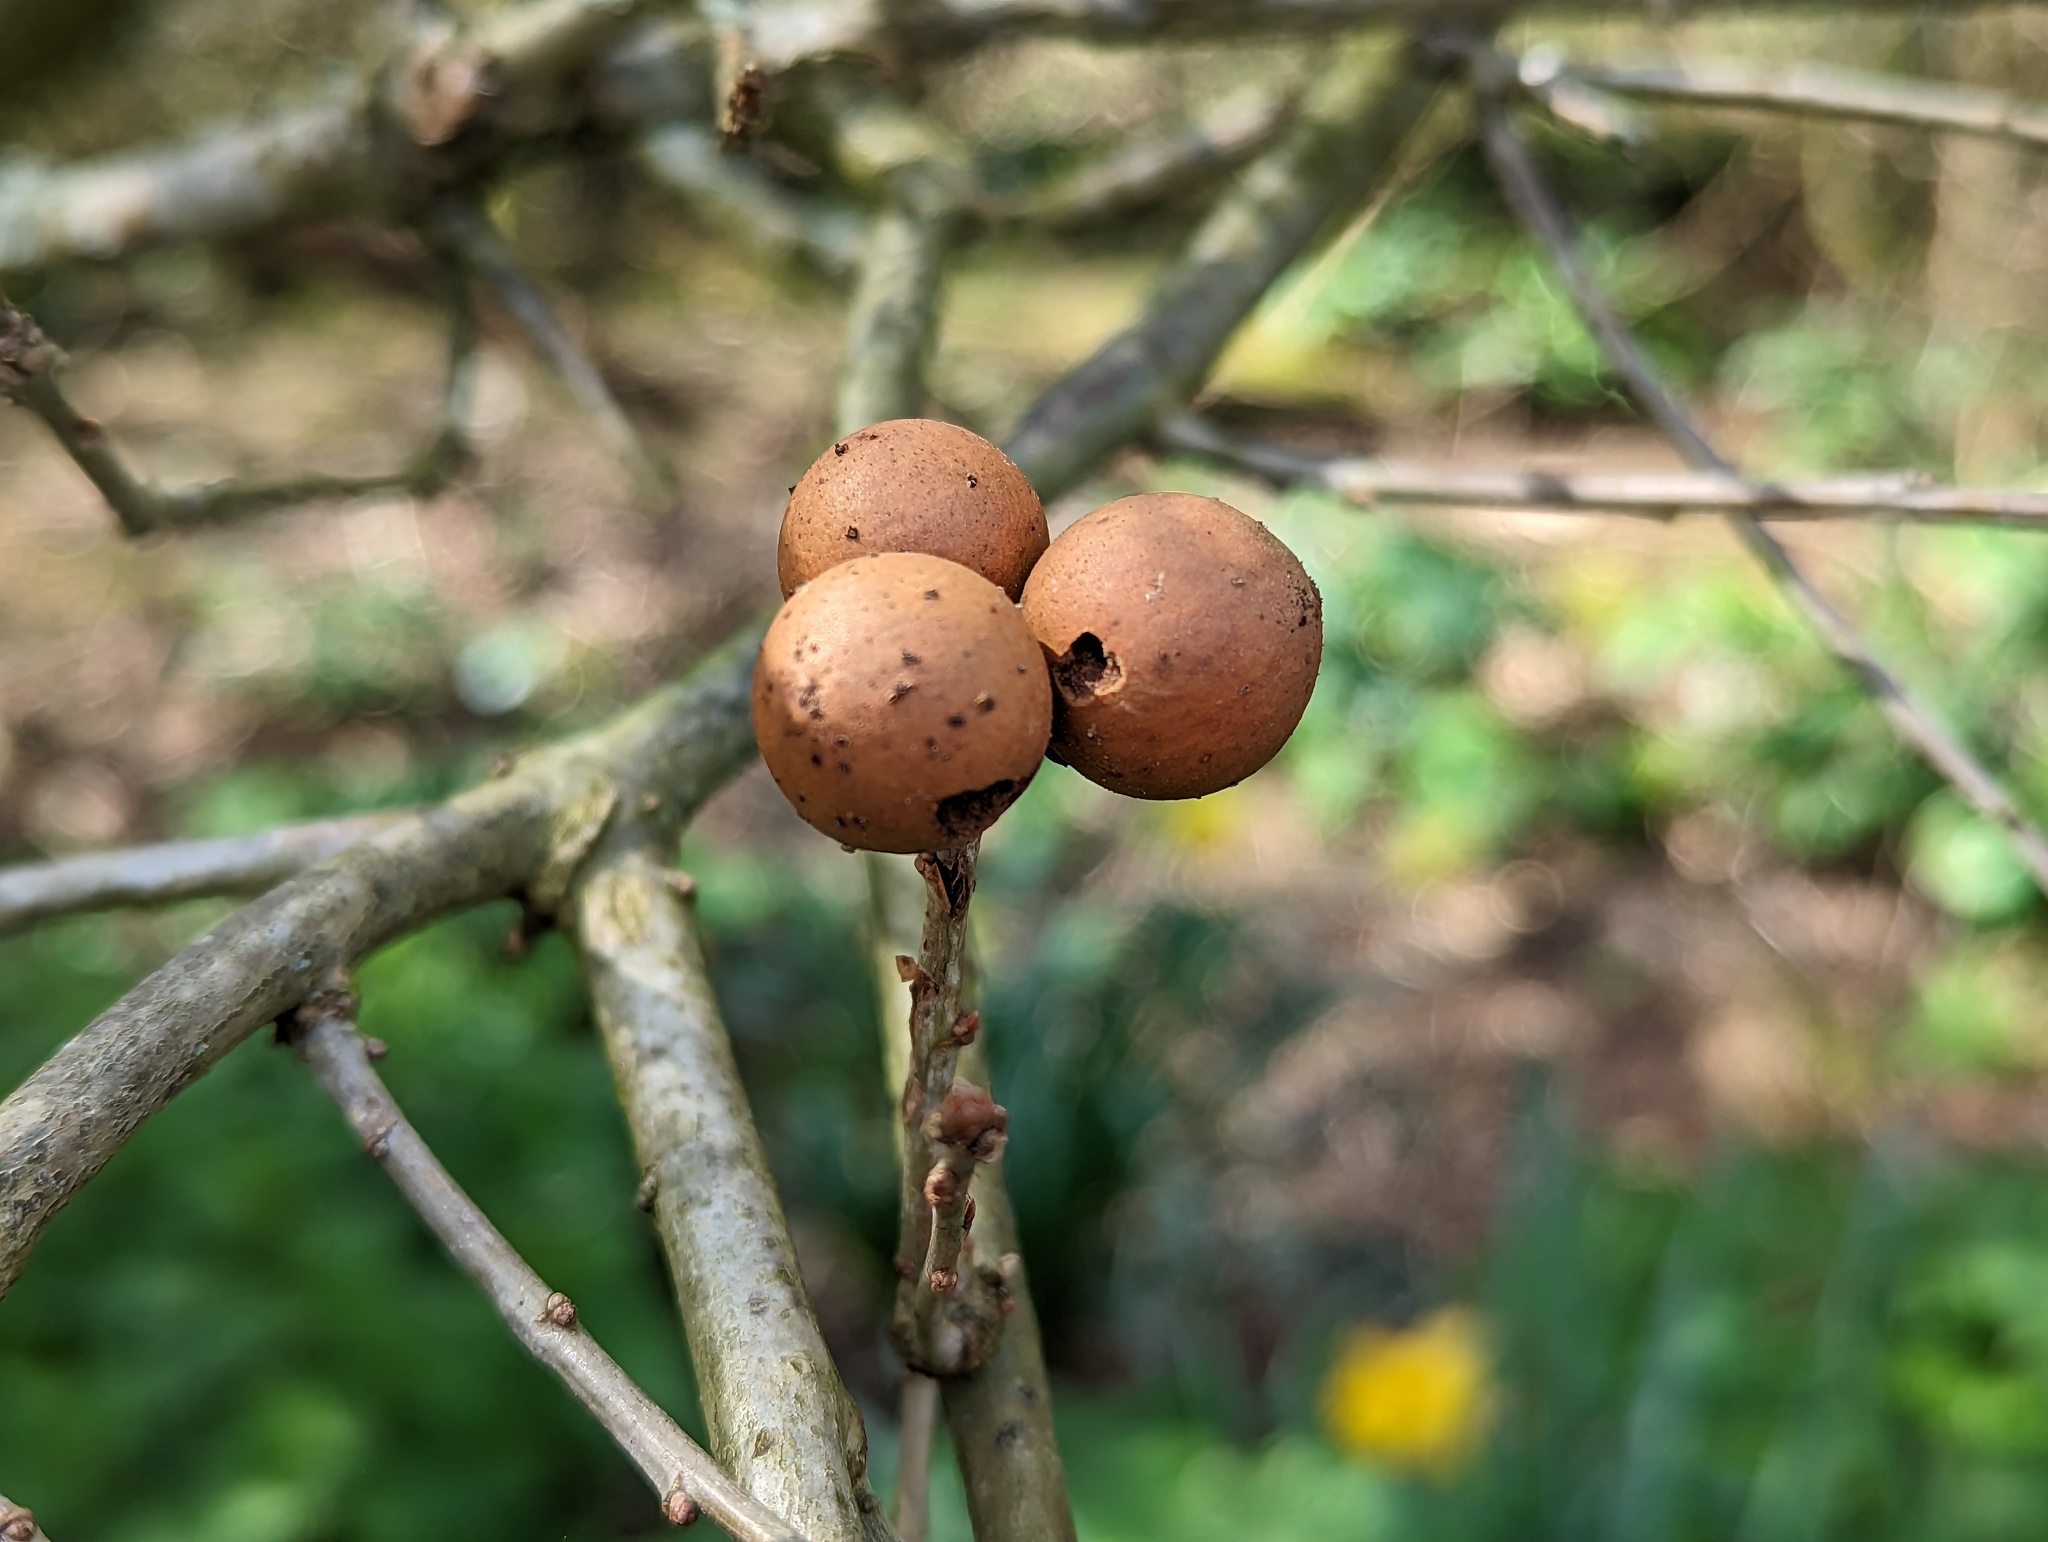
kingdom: Animalia
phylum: Arthropoda
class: Insecta
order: Hymenoptera
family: Cynipidae
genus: Andricus
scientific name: Andricus kollari
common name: Marble gall
